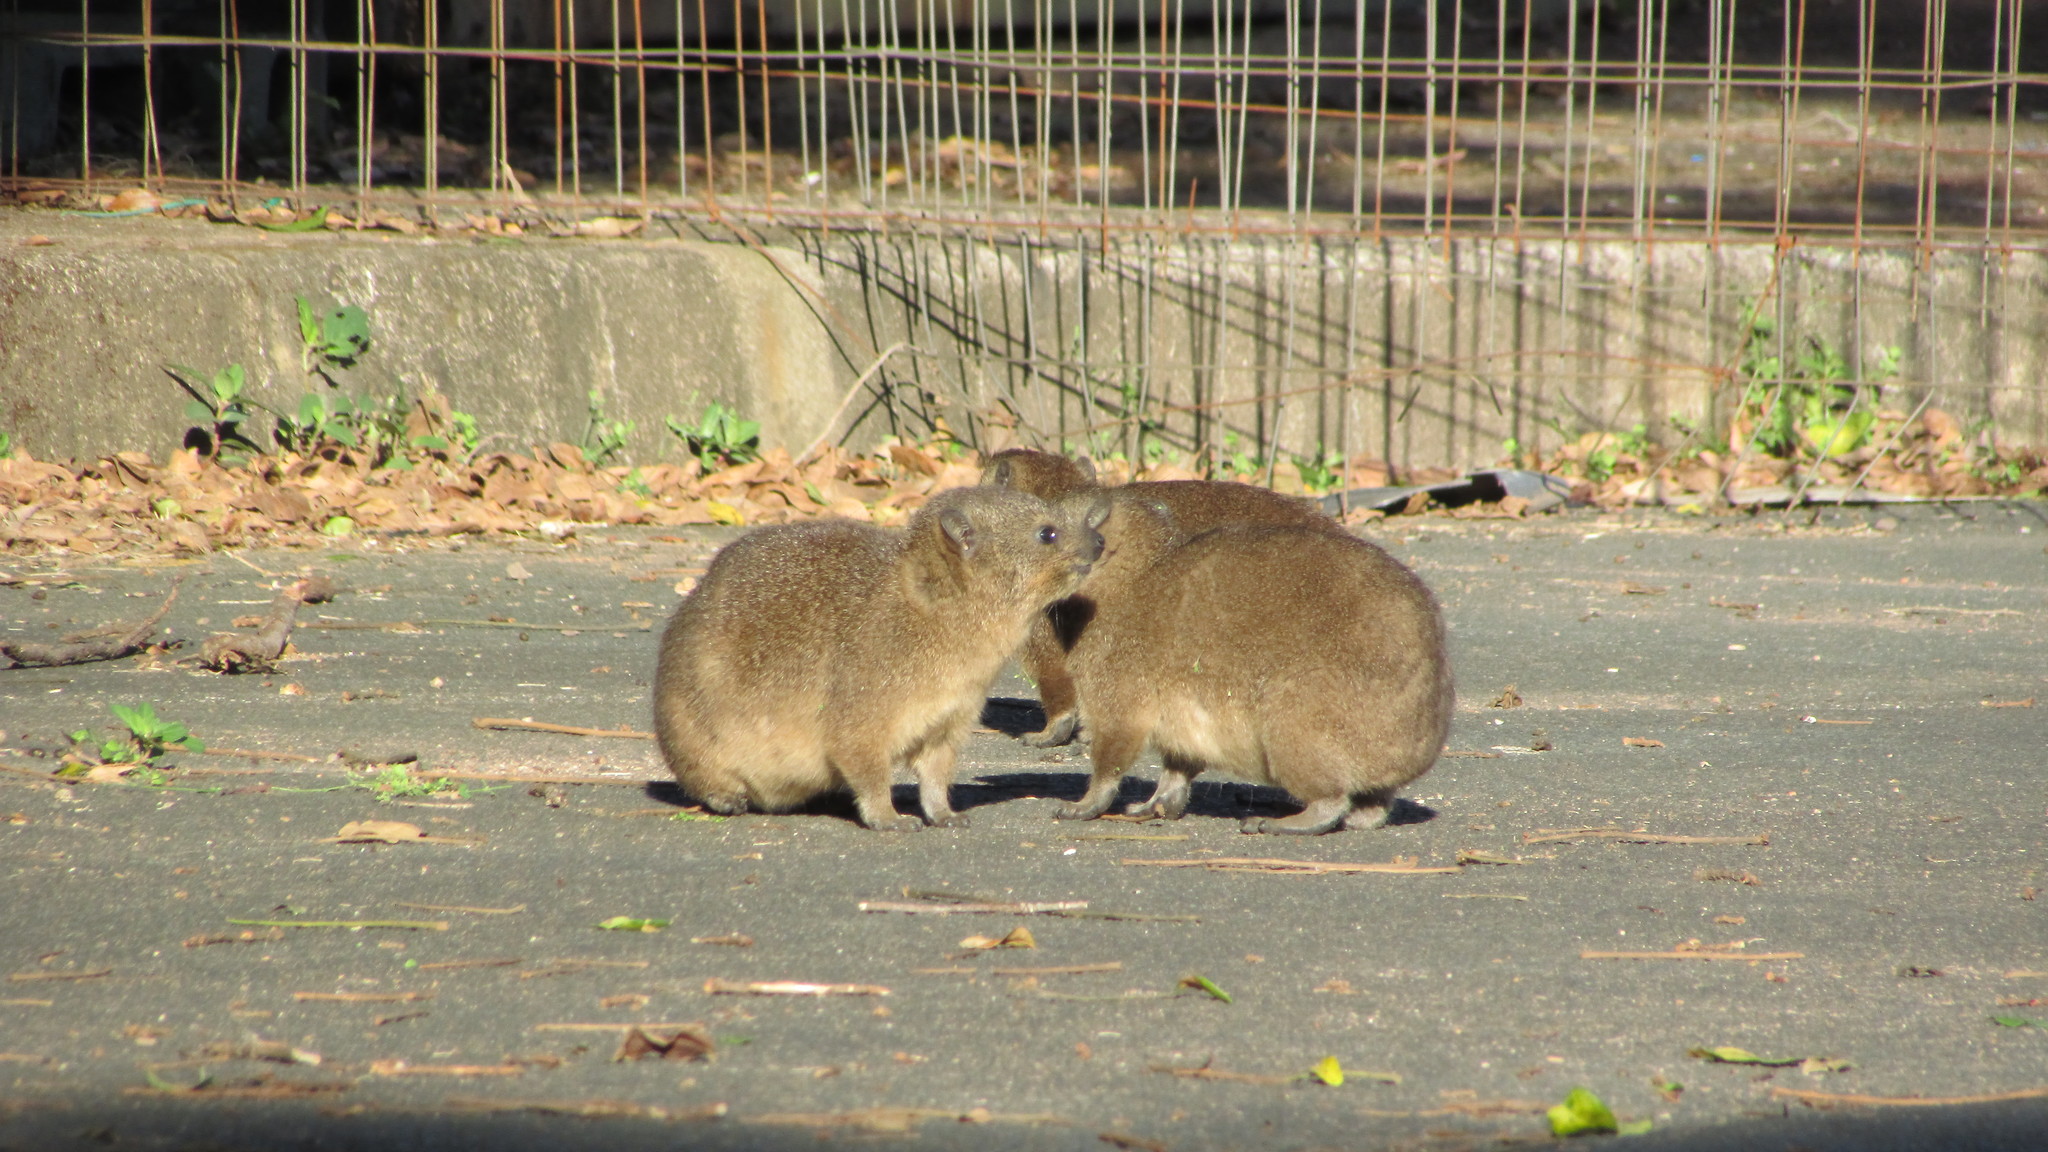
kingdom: Animalia
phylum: Chordata
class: Mammalia
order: Hyracoidea
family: Procaviidae
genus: Procavia
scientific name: Procavia capensis
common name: Rock hyrax
